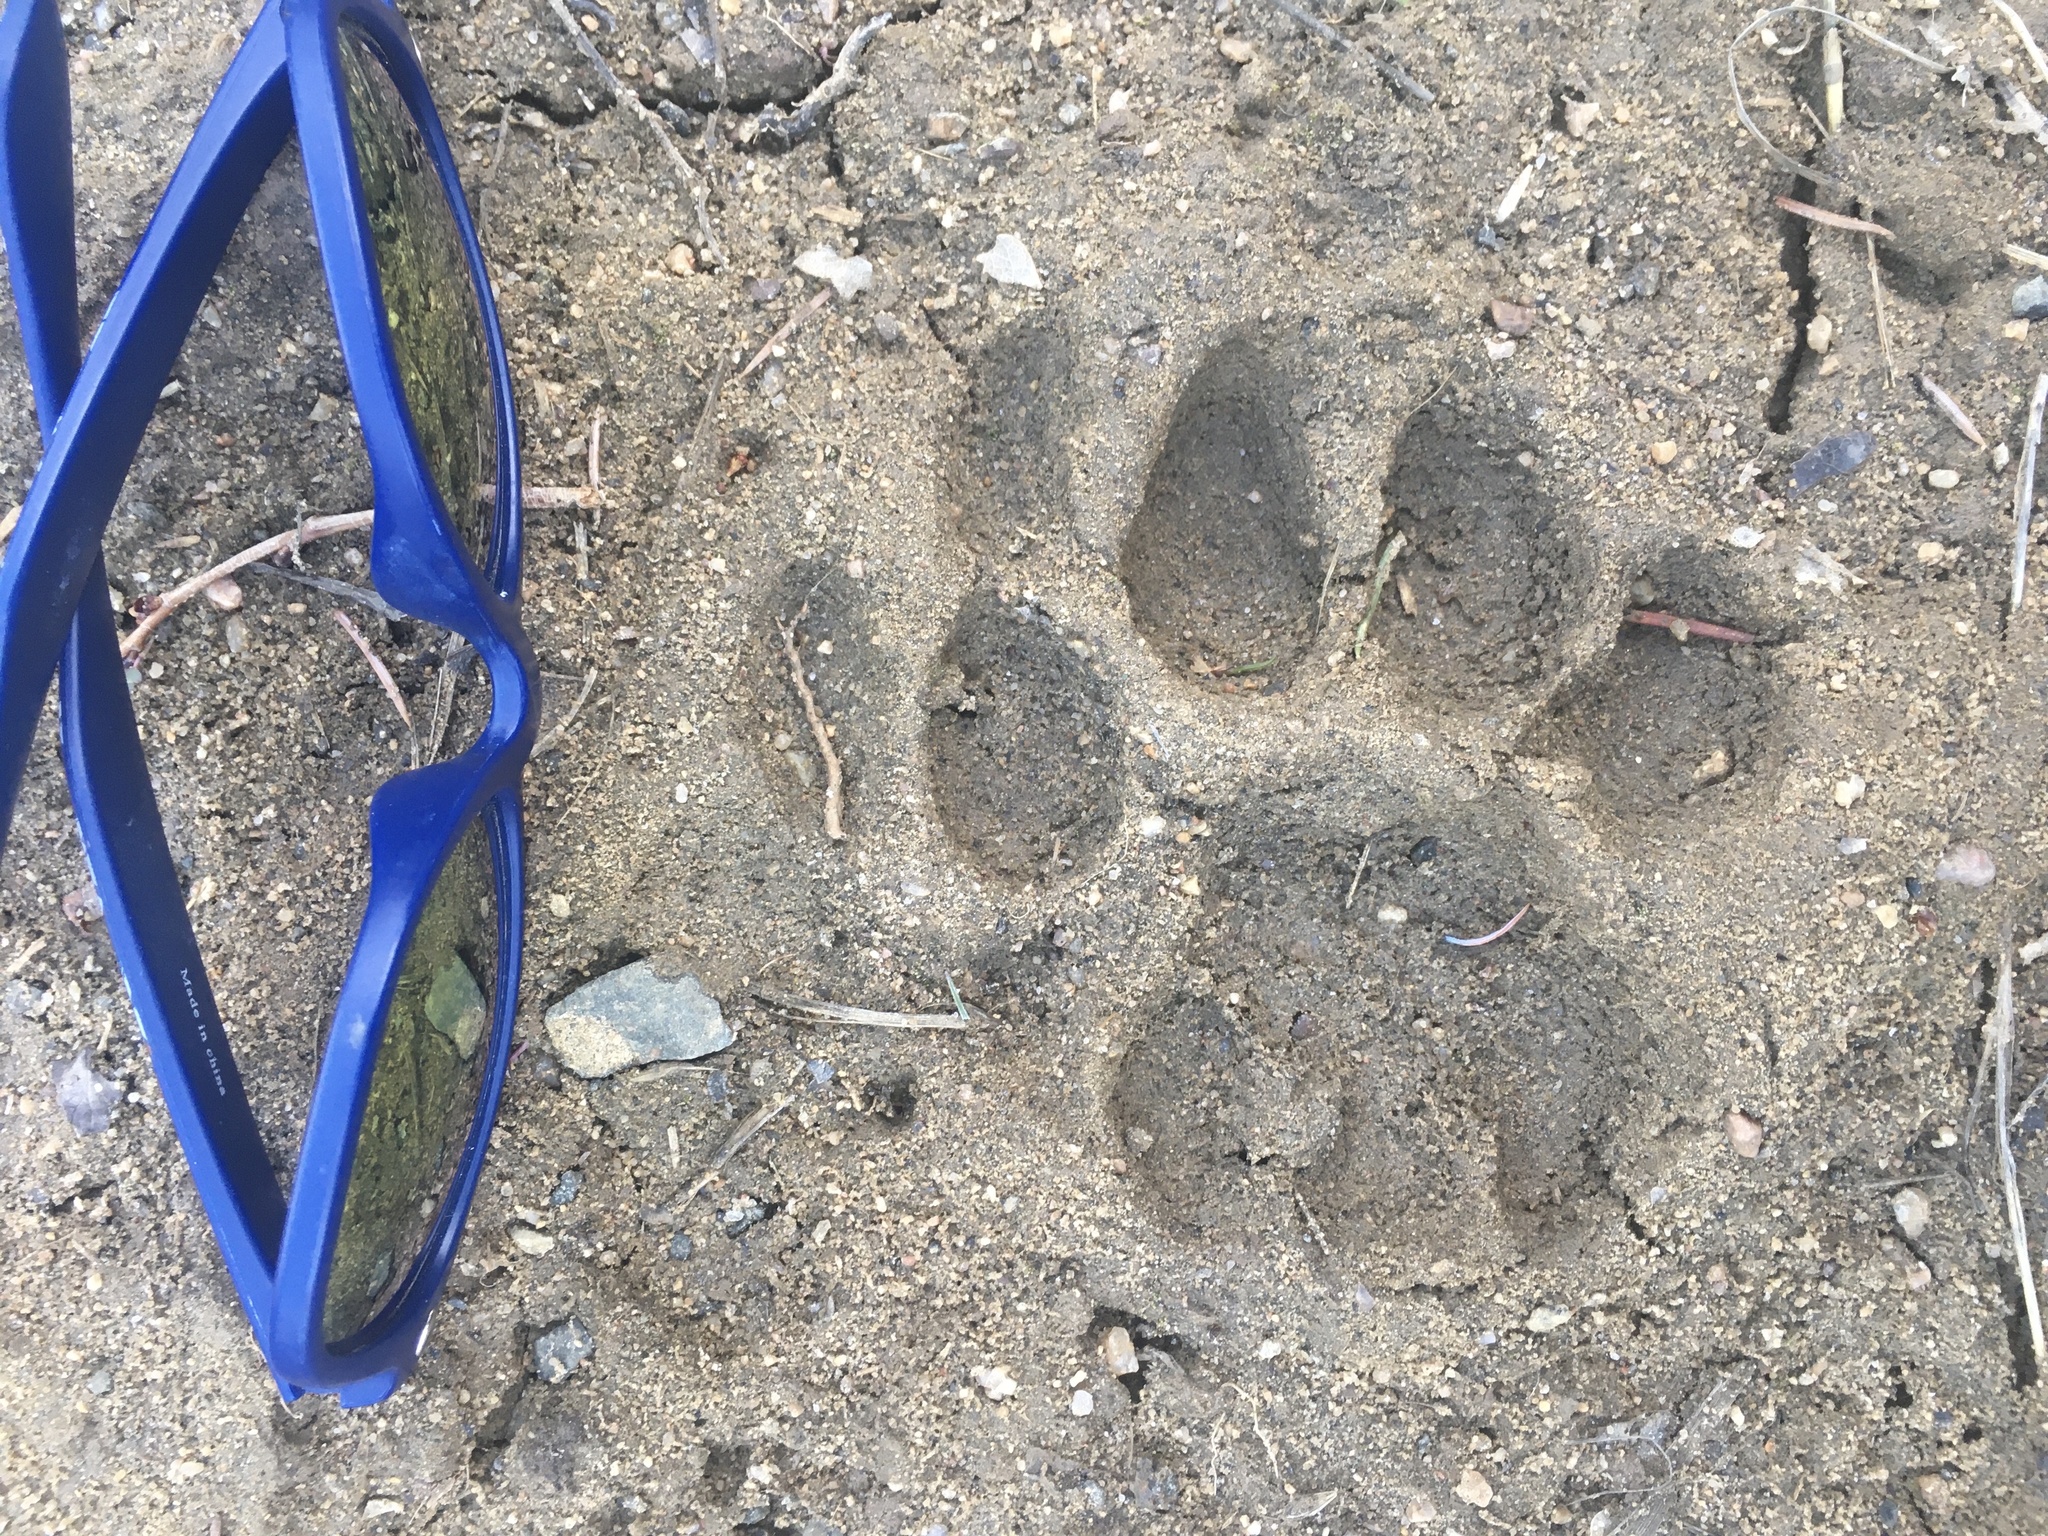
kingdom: Animalia
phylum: Chordata
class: Mammalia
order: Carnivora
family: Felidae
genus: Puma
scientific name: Puma concolor
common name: Puma
